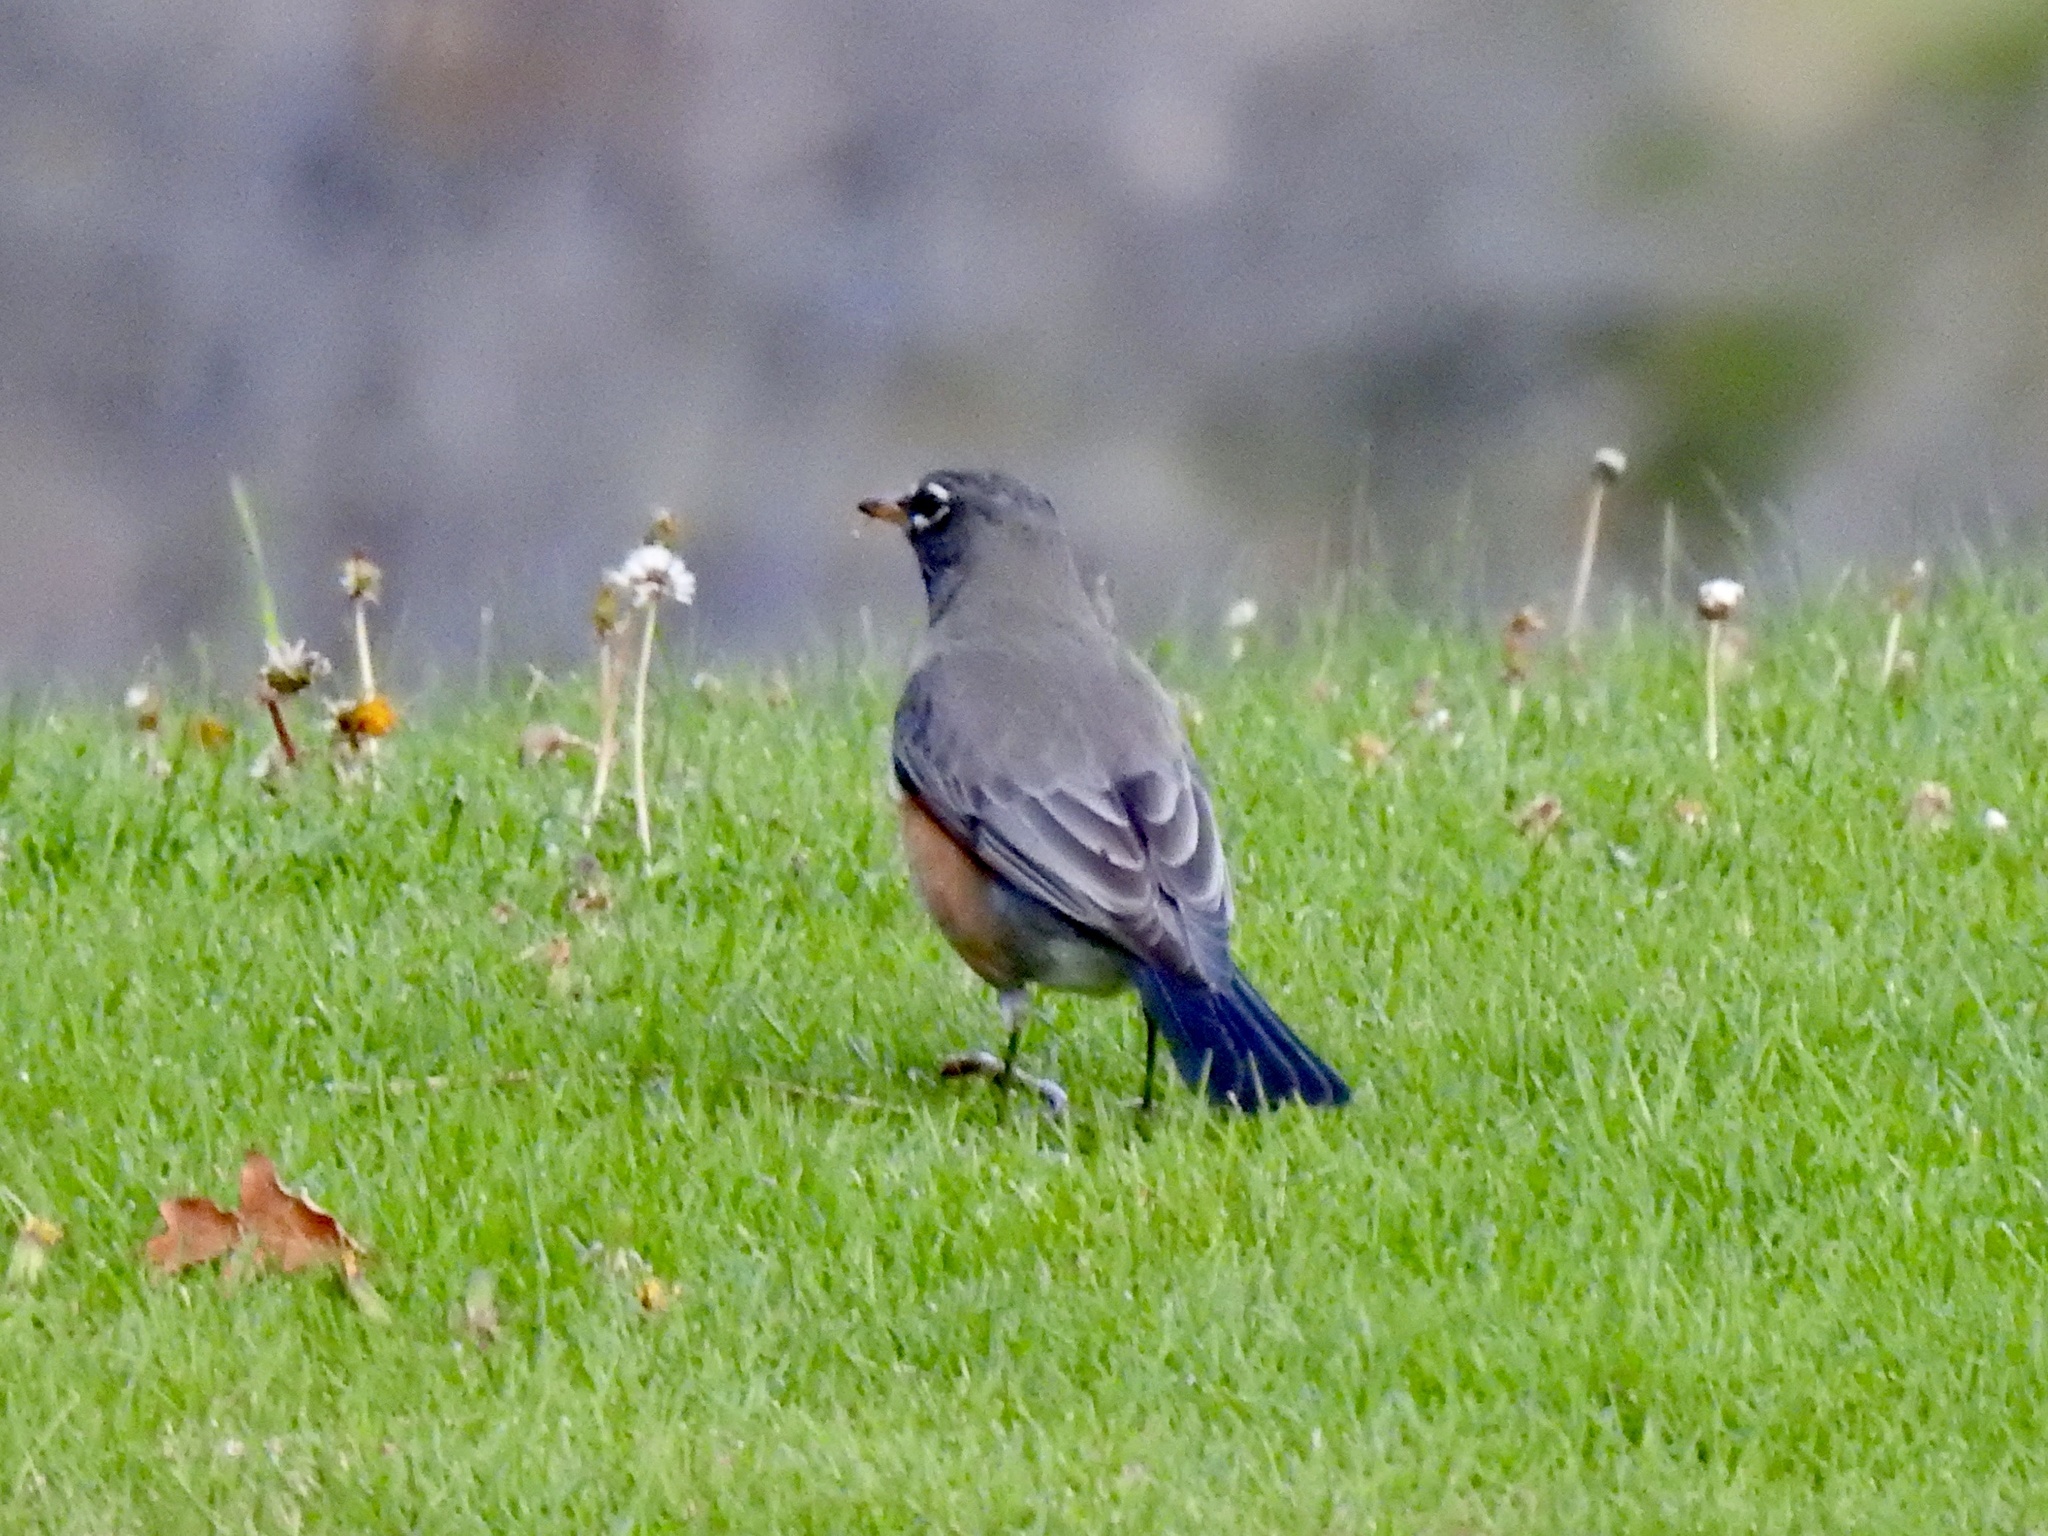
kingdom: Animalia
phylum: Chordata
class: Aves
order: Passeriformes
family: Turdidae
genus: Turdus
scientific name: Turdus migratorius
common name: American robin
